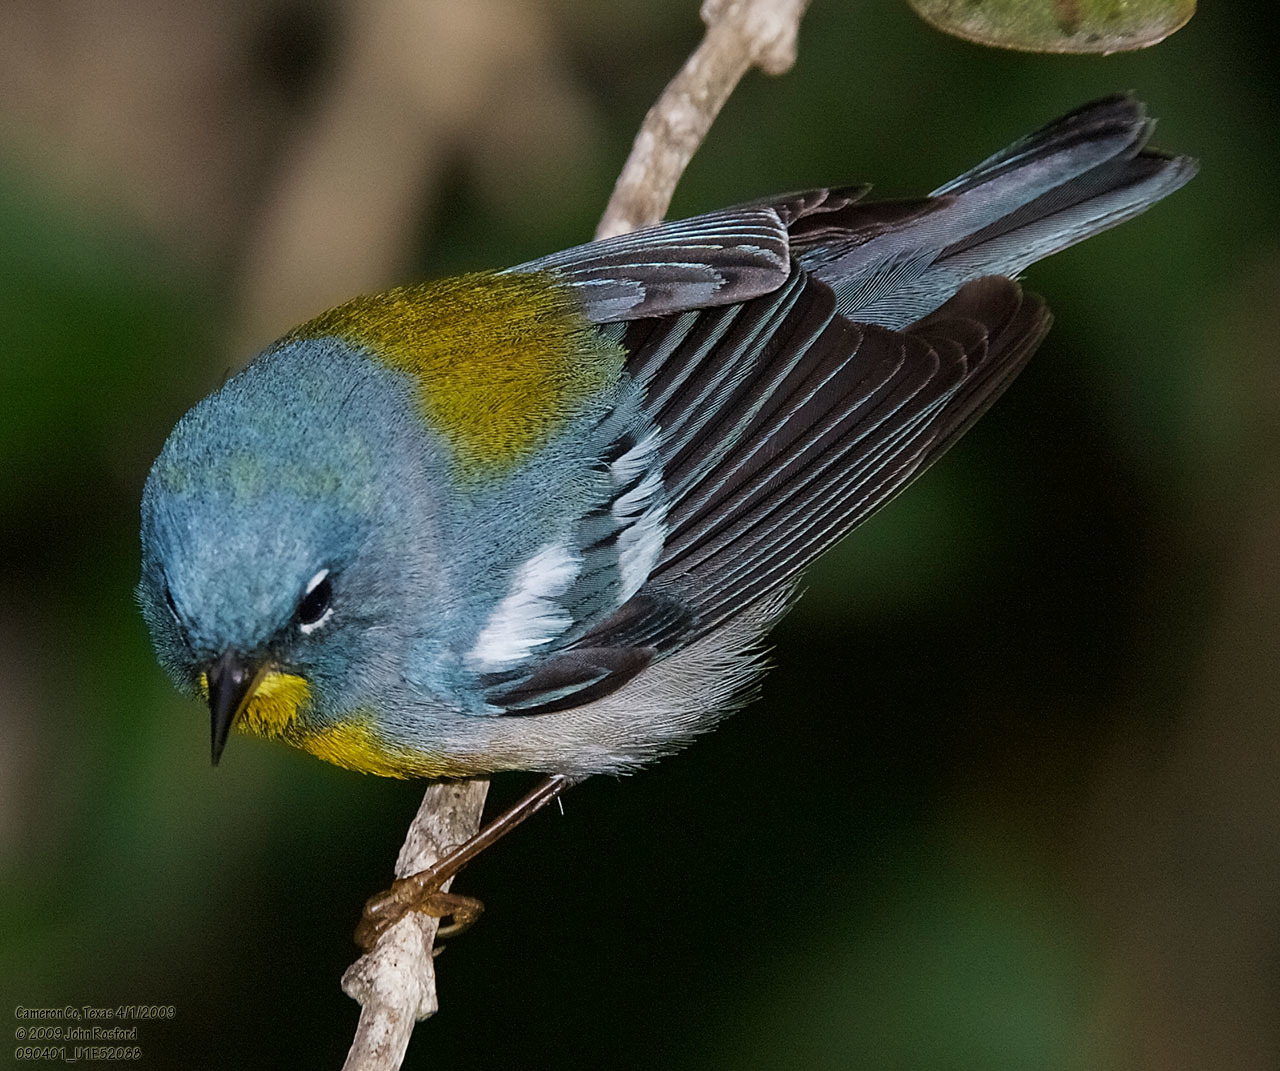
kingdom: Animalia
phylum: Chordata
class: Aves
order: Passeriformes
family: Parulidae
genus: Setophaga
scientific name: Setophaga americana
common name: Northern parula
